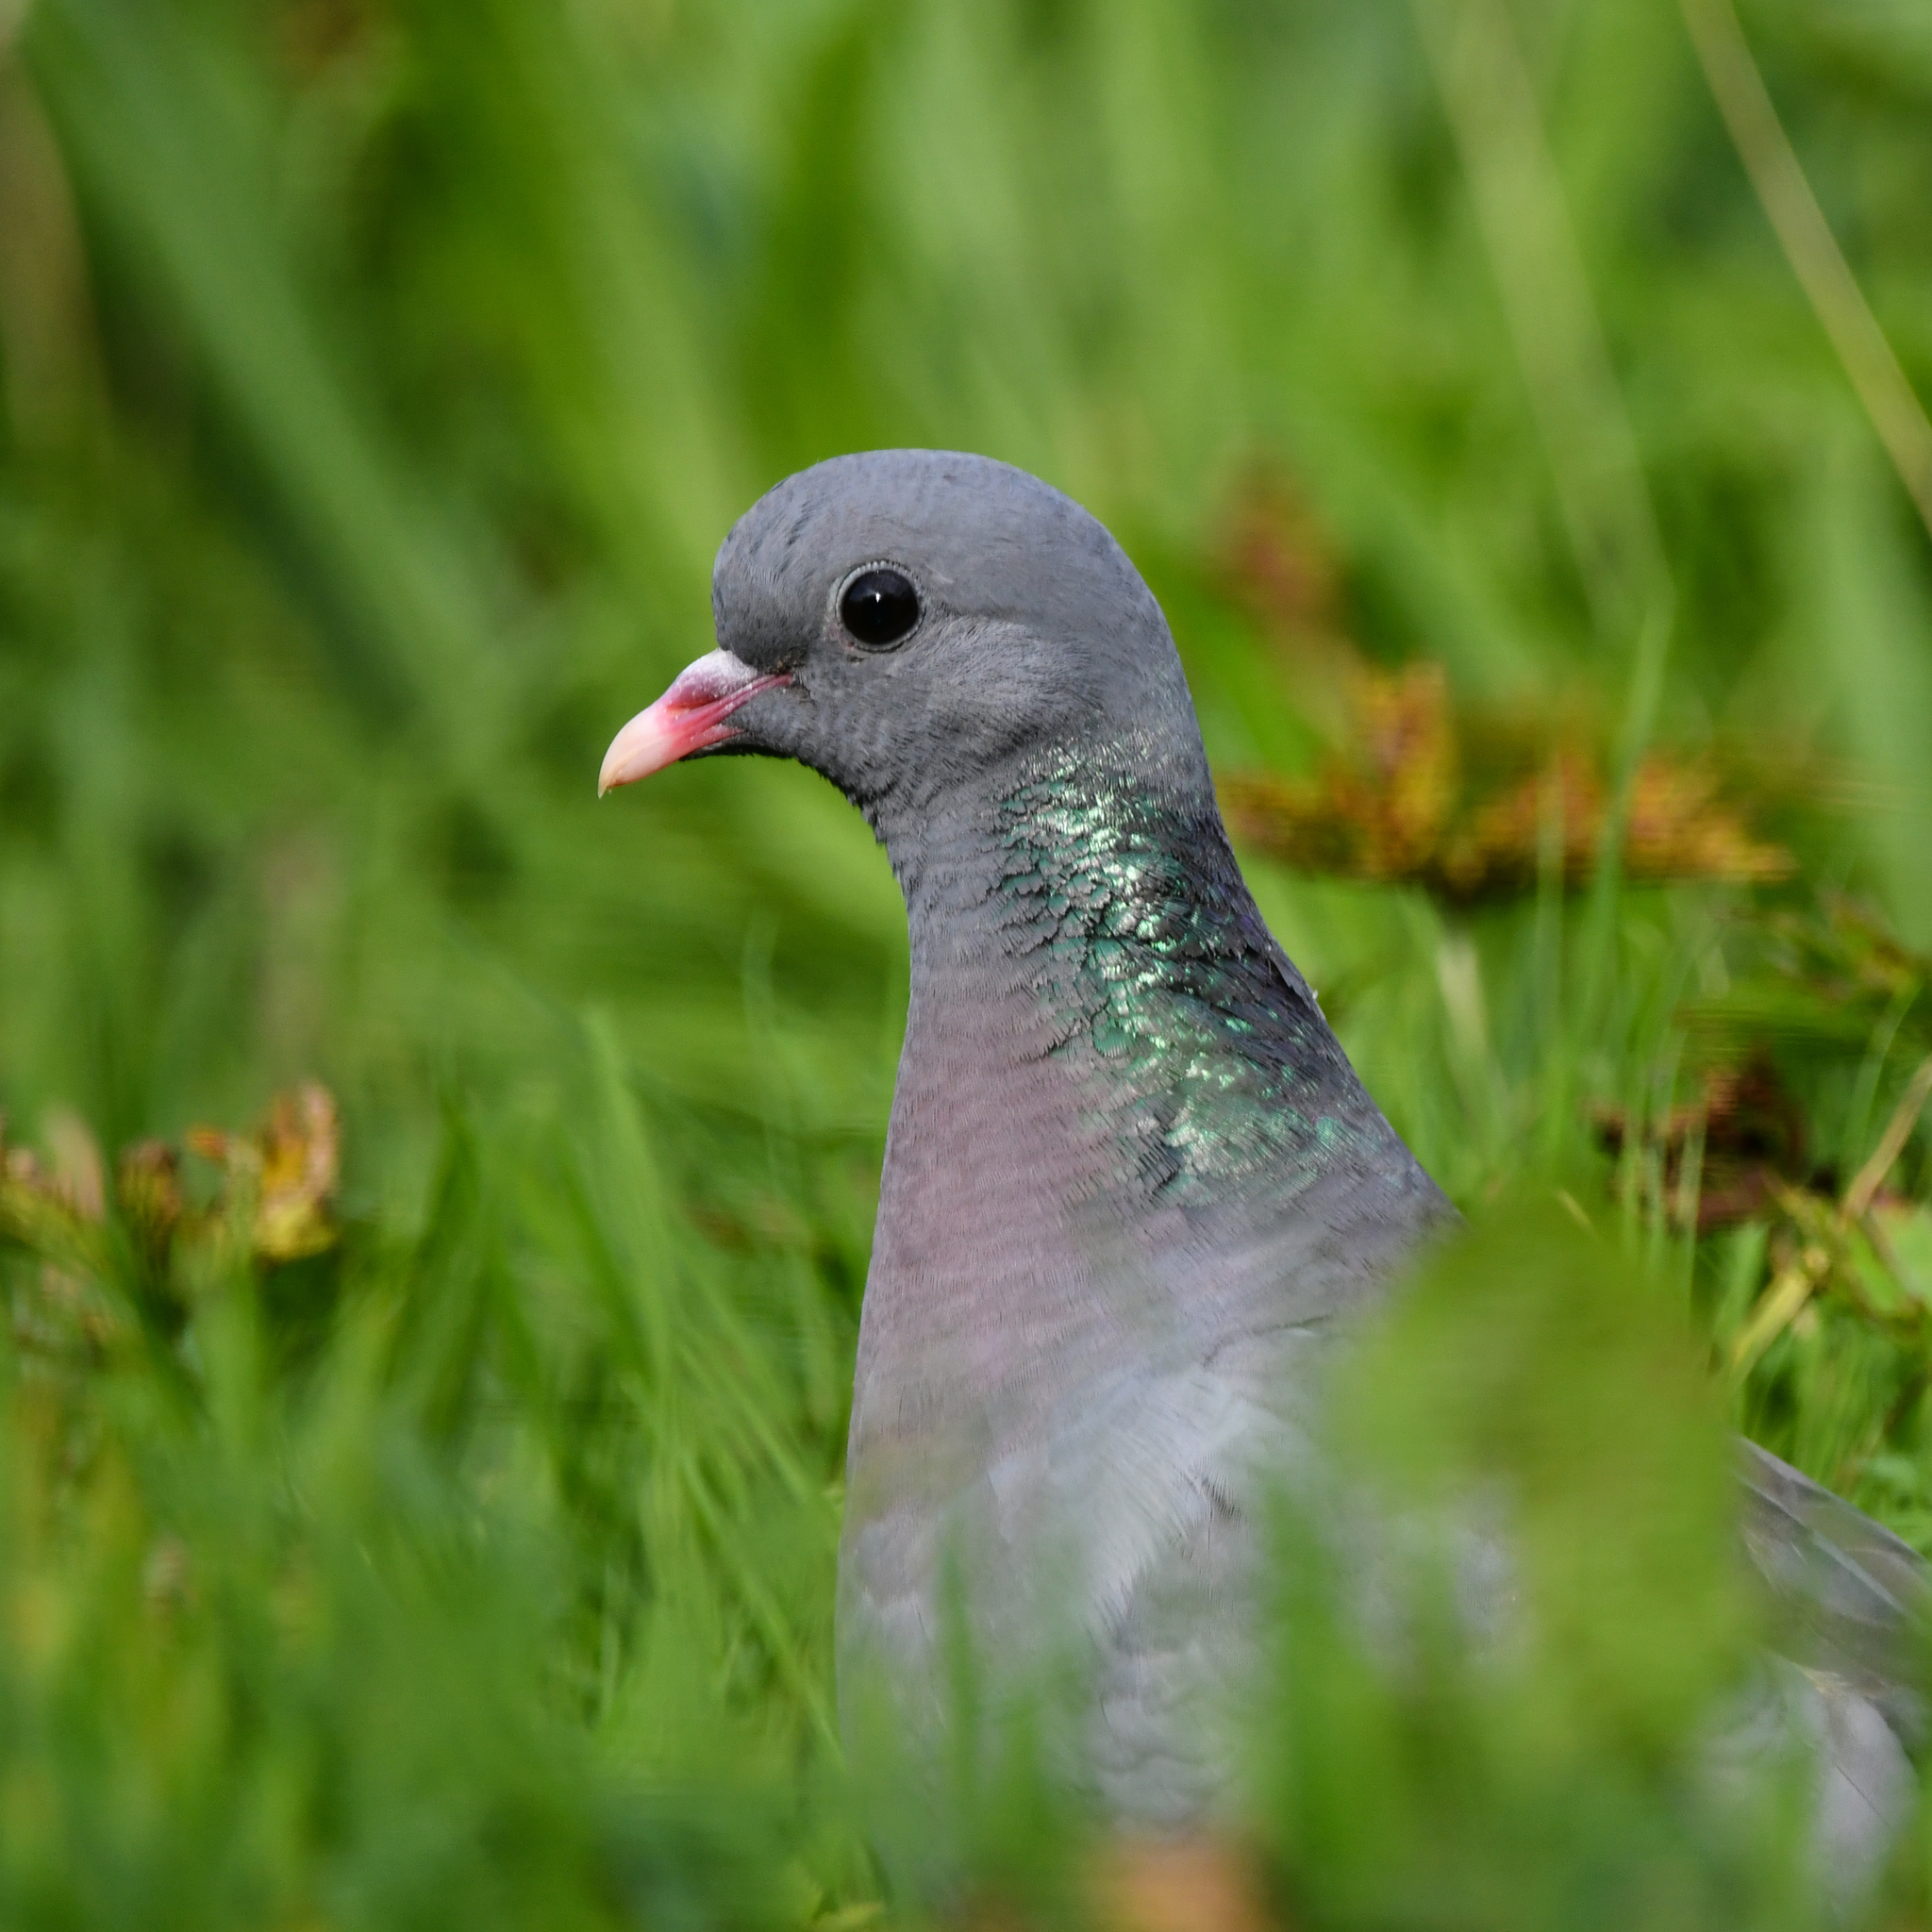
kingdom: Animalia
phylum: Chordata
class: Aves
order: Columbiformes
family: Columbidae
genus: Columba
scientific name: Columba oenas
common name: Stock dove
